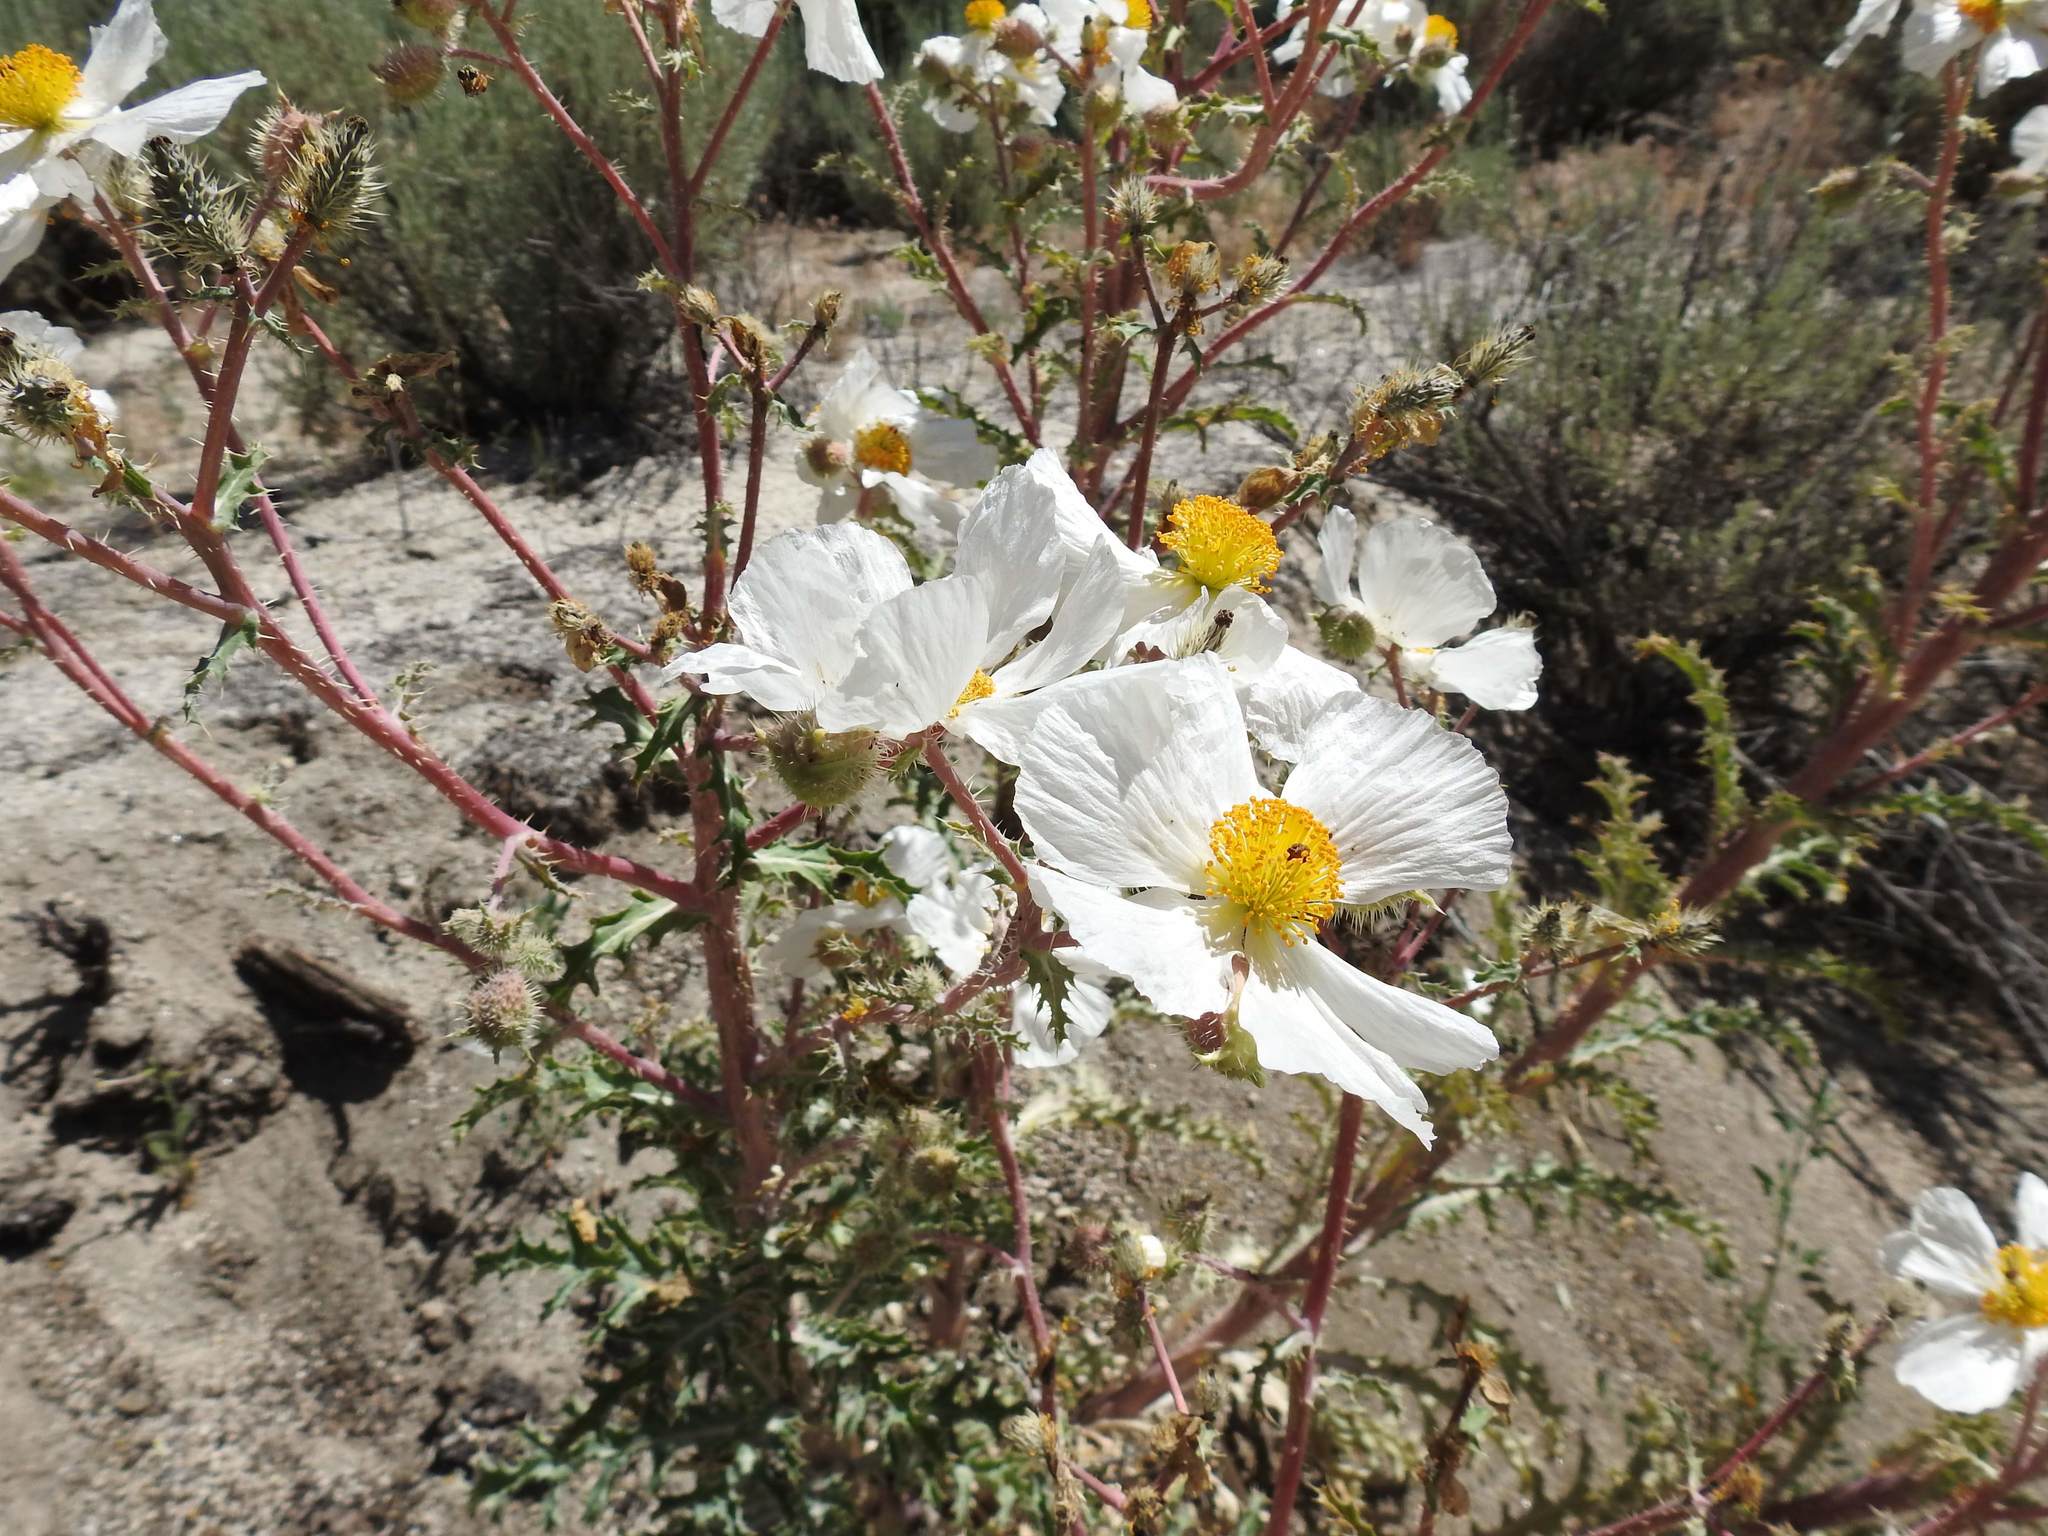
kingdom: Plantae
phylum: Tracheophyta
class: Magnoliopsida
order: Ranunculales
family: Papaveraceae
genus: Argemone
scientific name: Argemone munita
